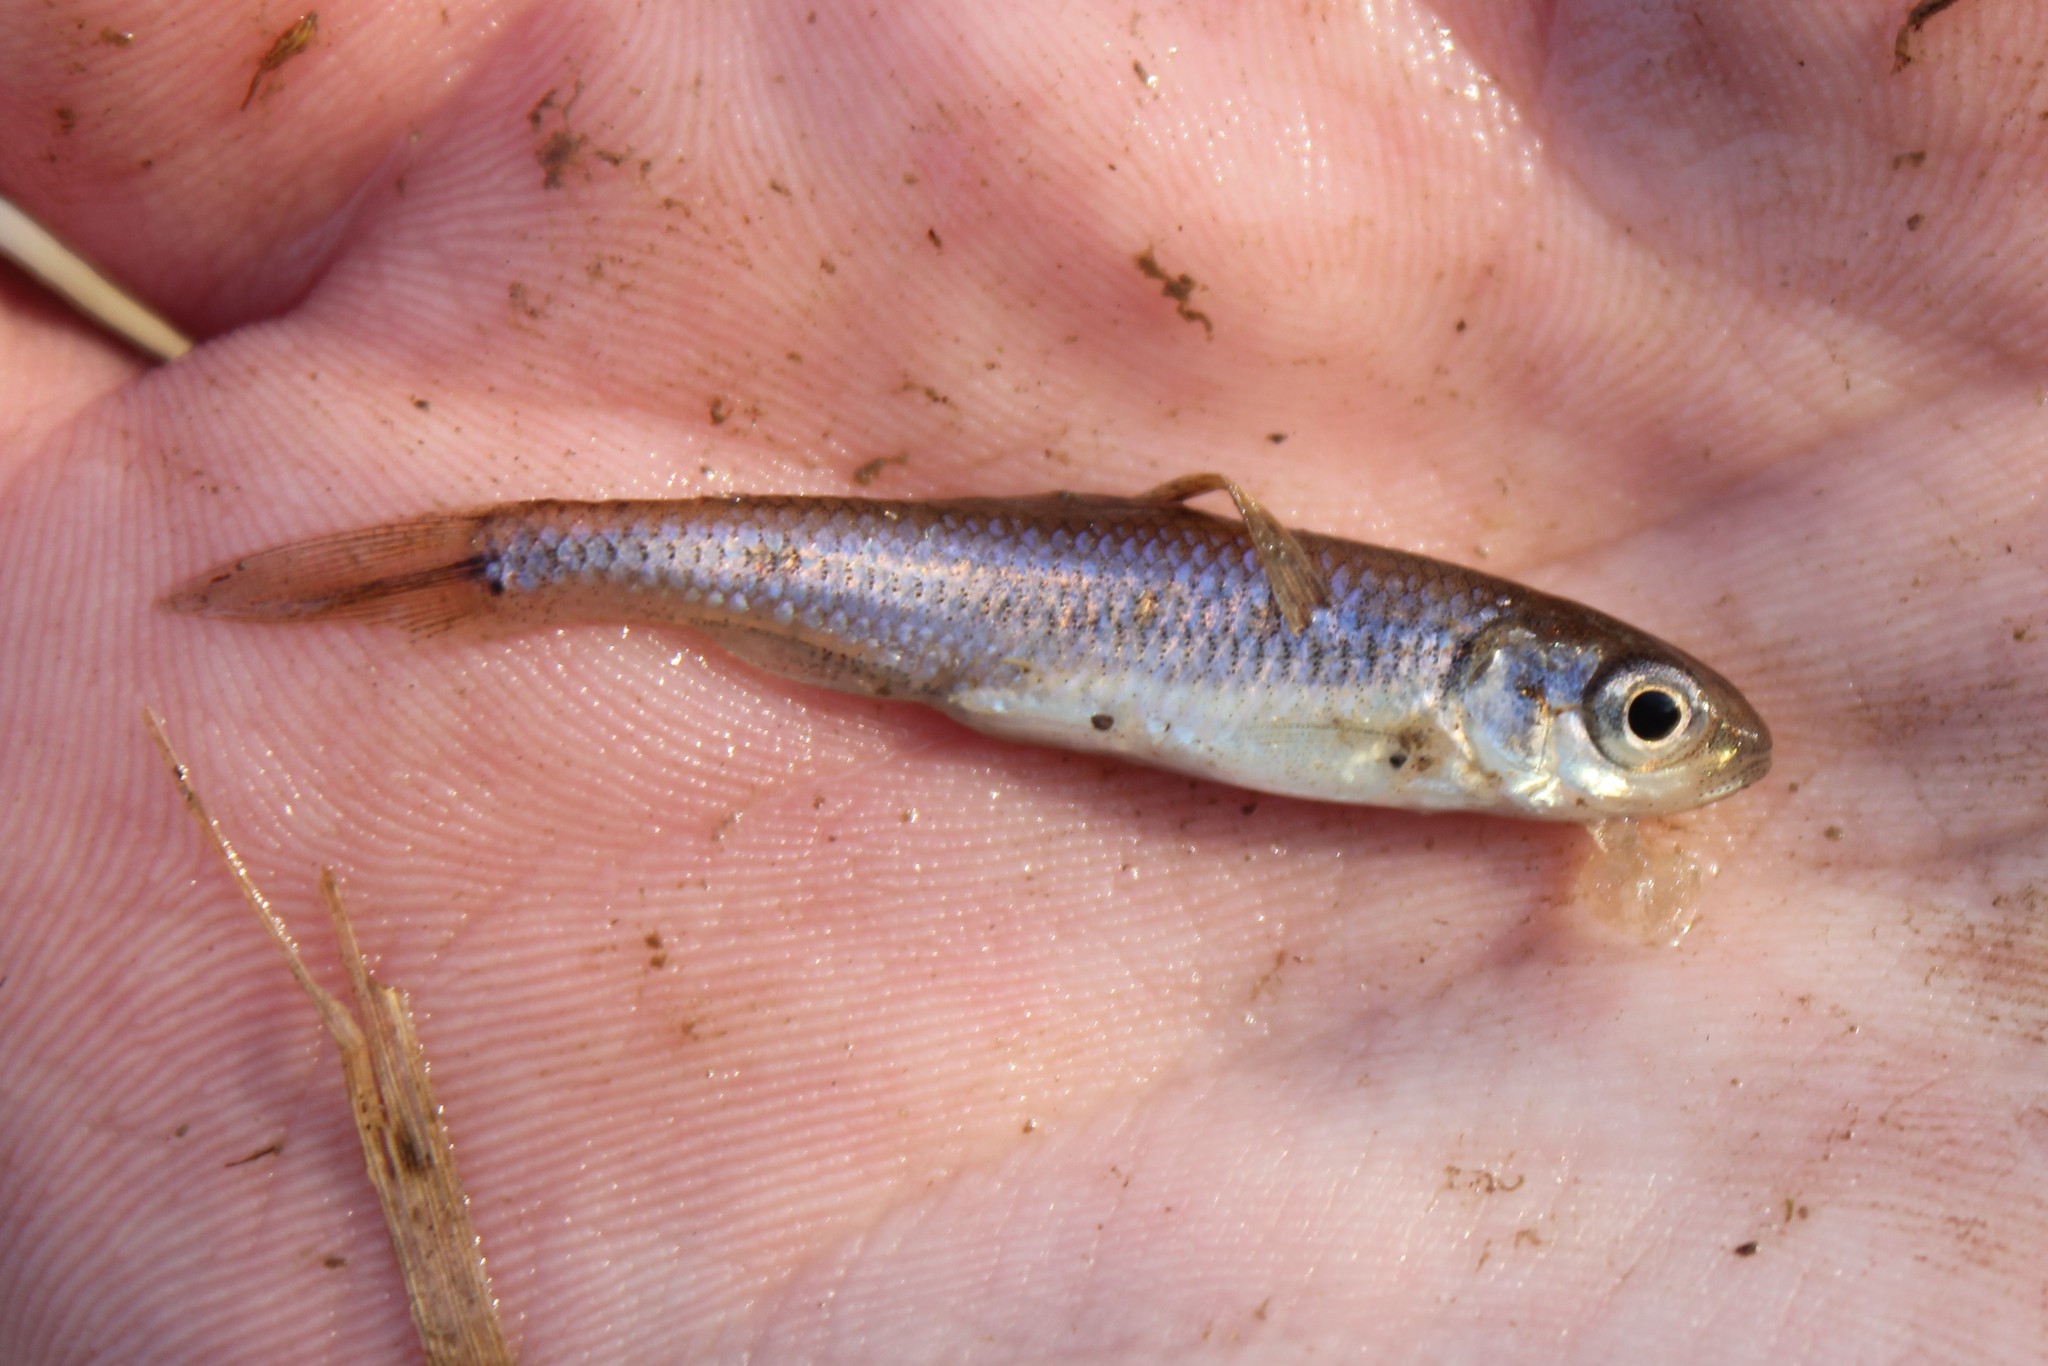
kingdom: Animalia
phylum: Chordata
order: Cypriniformes
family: Cyprinidae
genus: Luxilus
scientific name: Luxilus chrysocephalus
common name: Striped shiner
